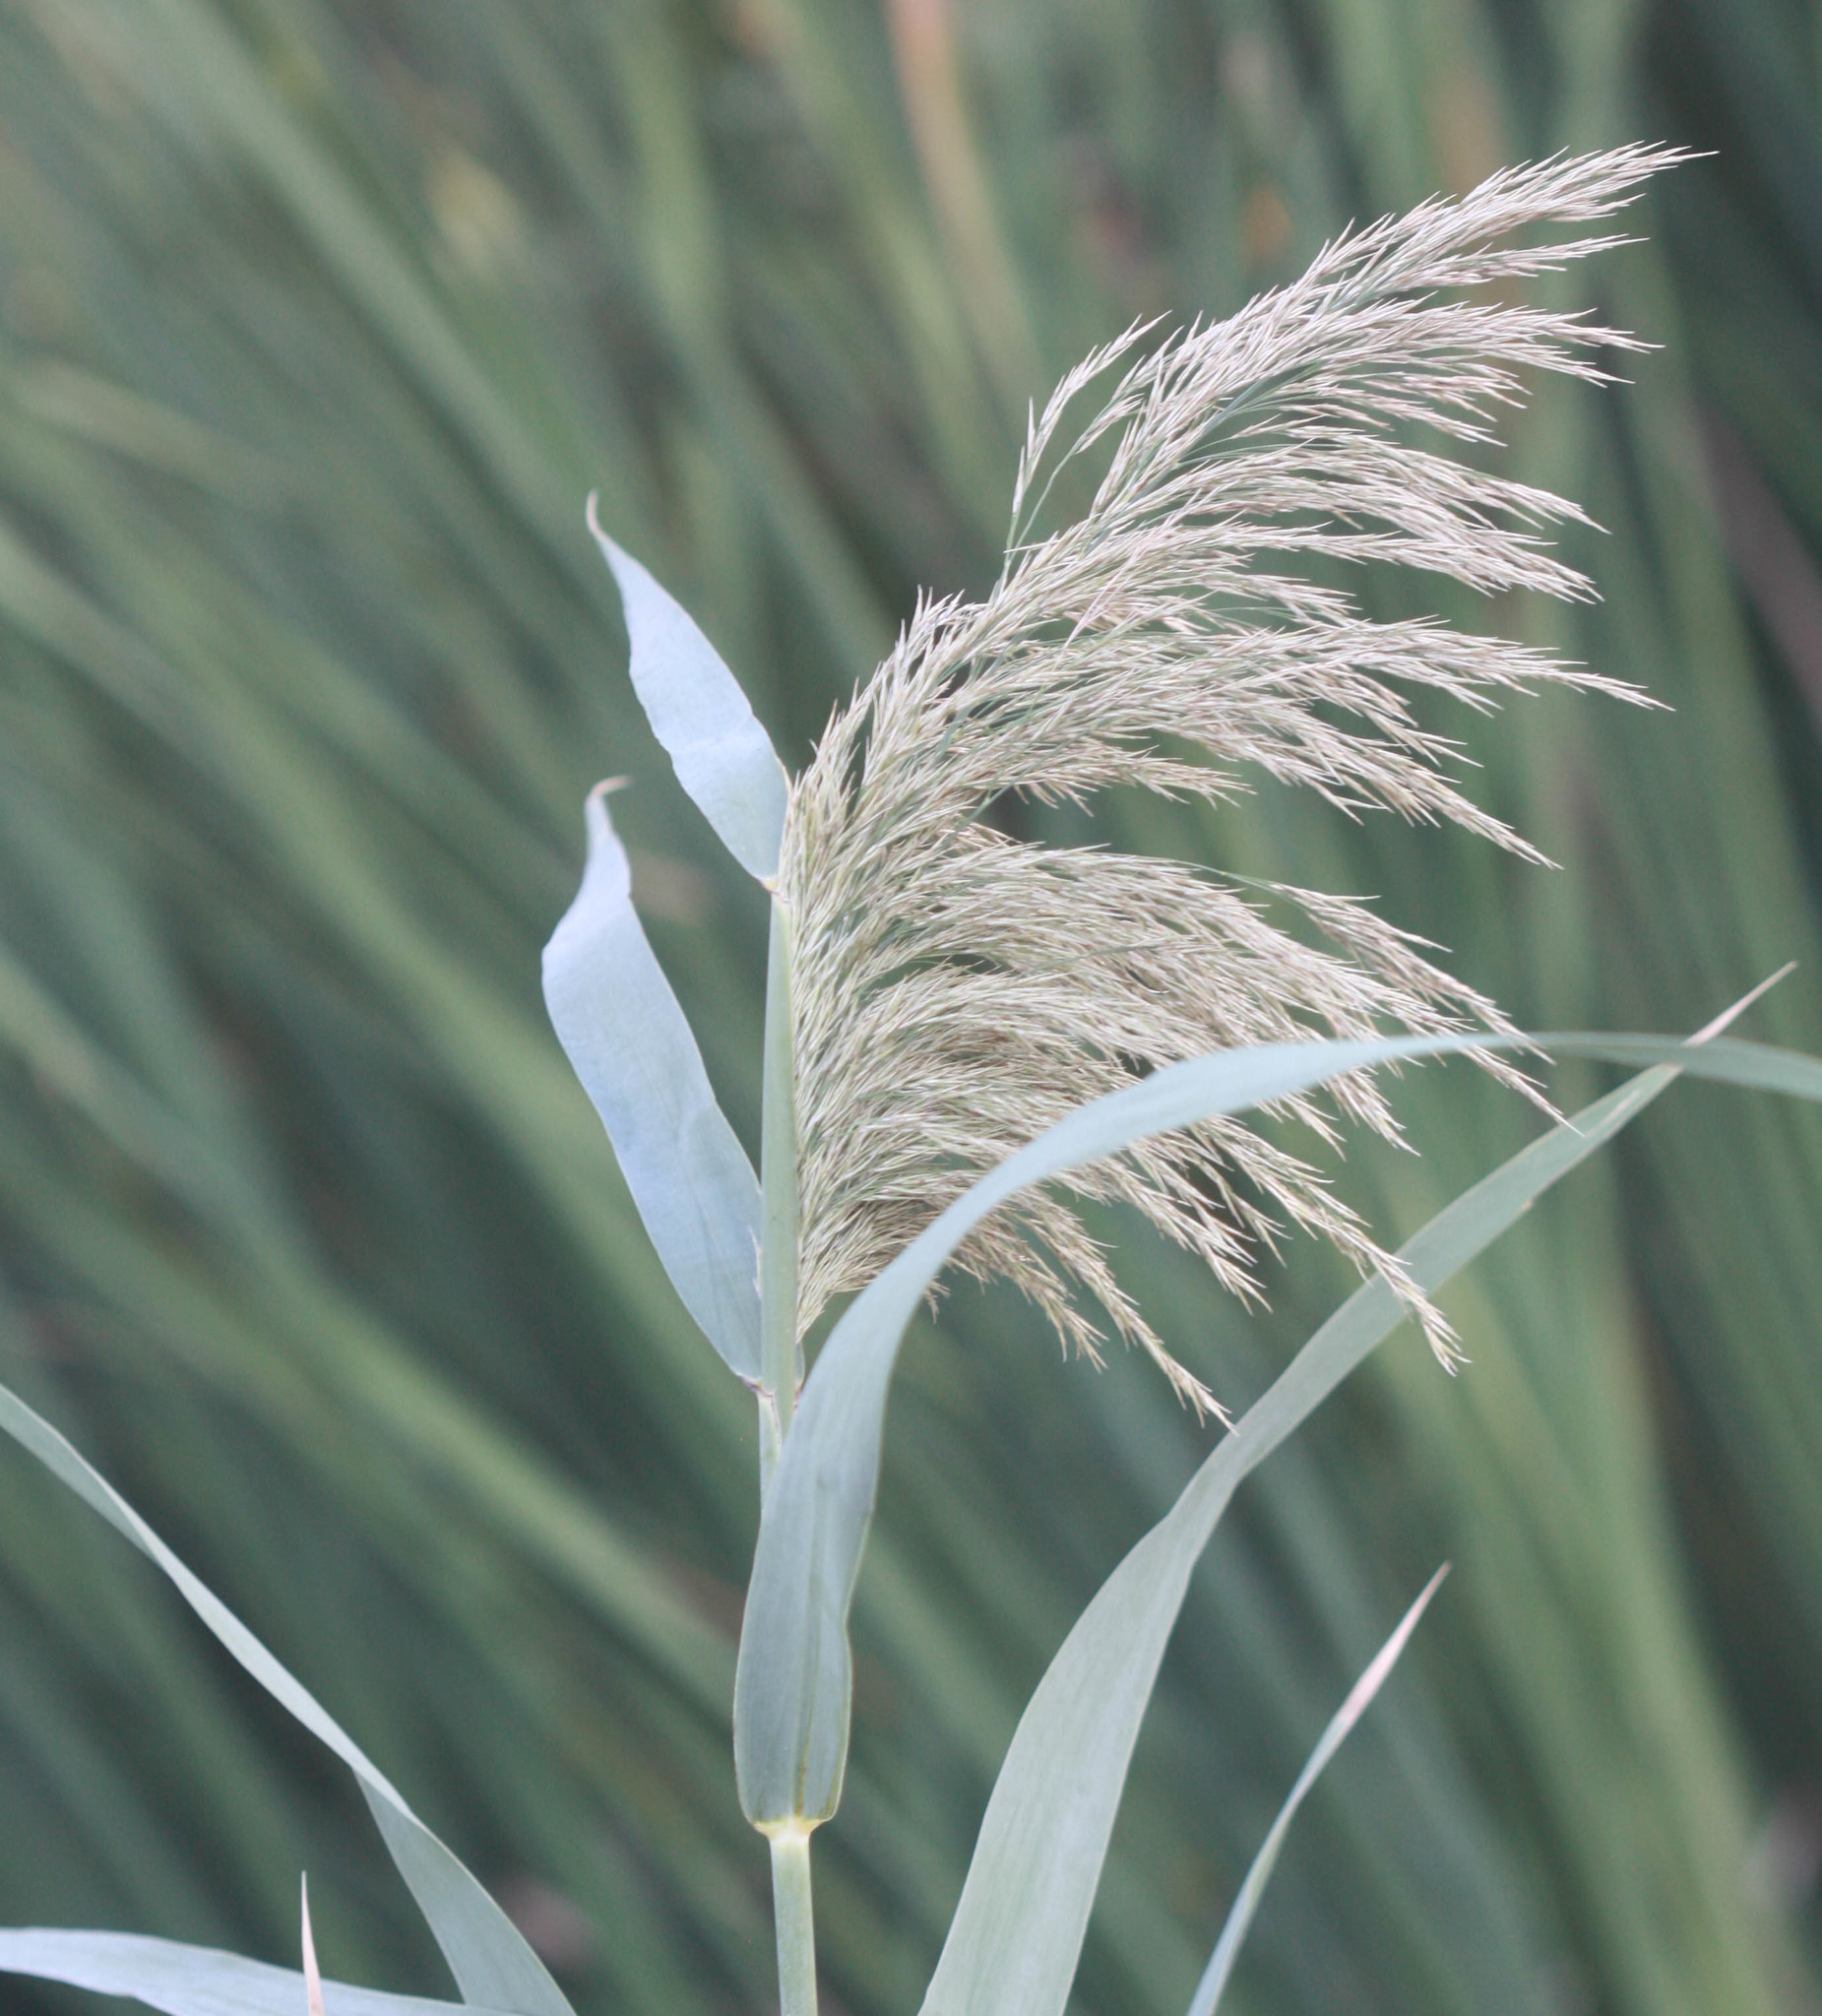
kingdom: Plantae
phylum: Tracheophyta
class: Liliopsida
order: Poales
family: Poaceae
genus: Phragmites
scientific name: Phragmites australis
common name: Common reed
